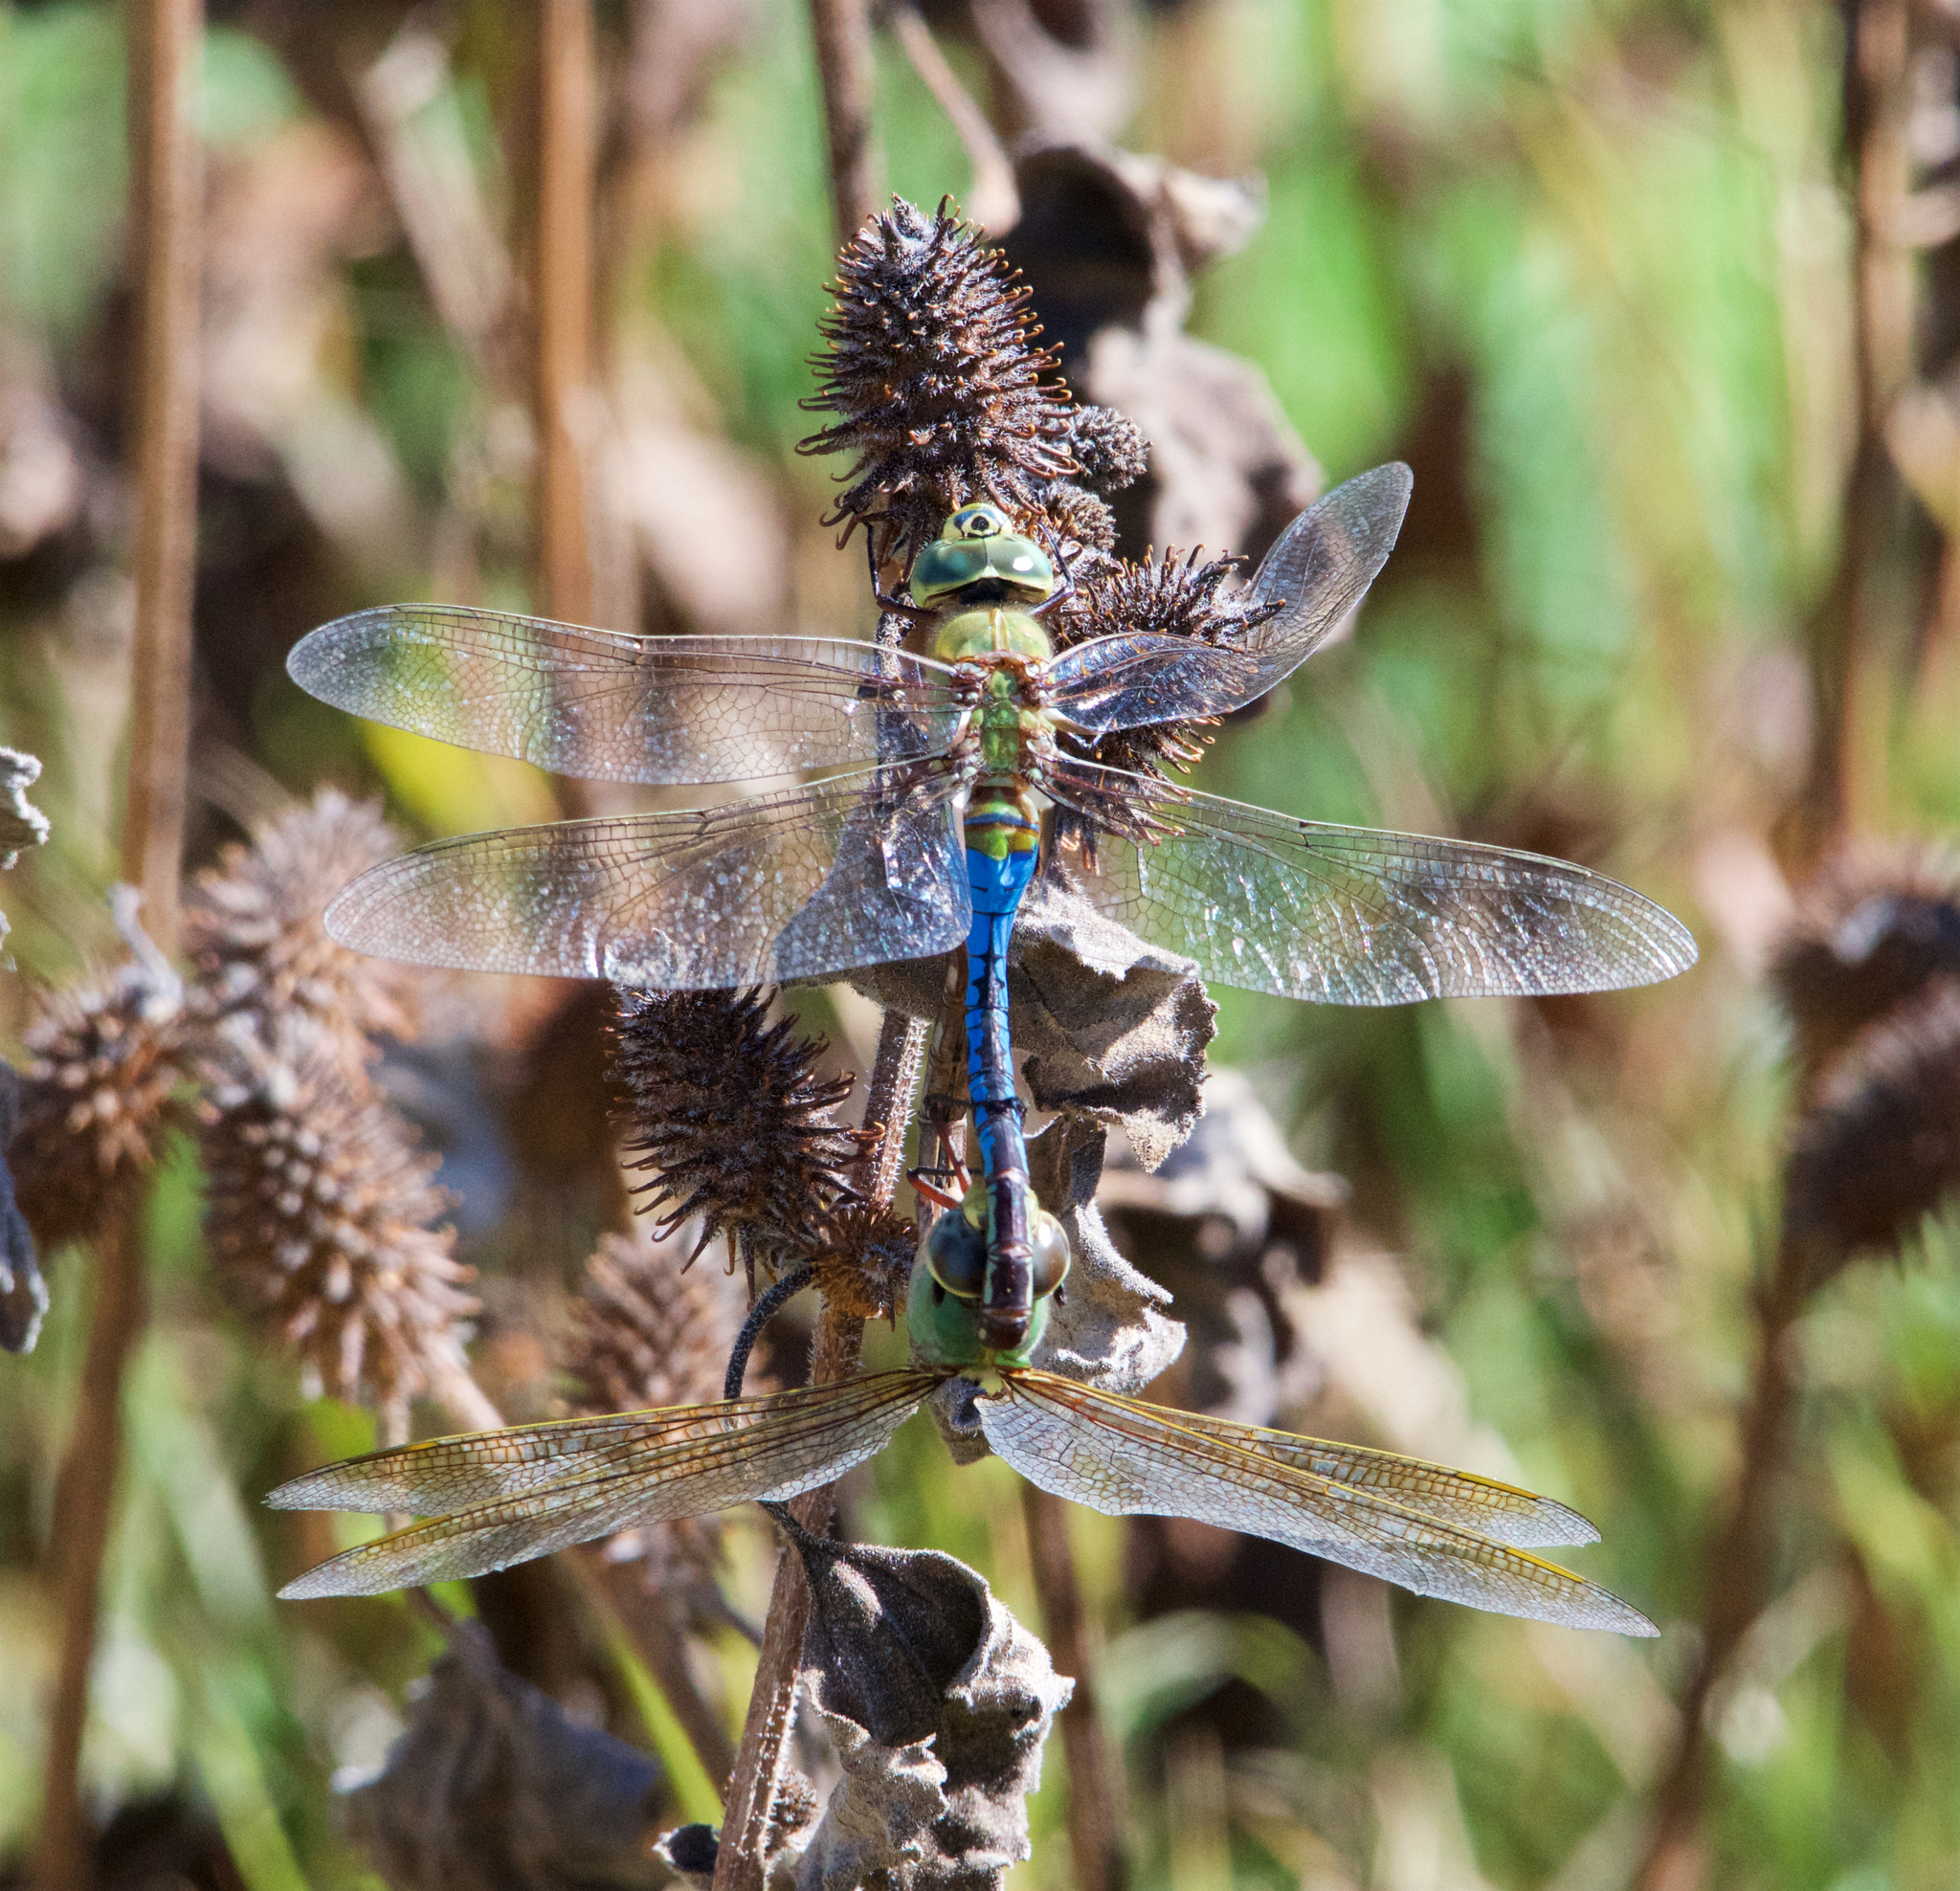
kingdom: Animalia
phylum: Arthropoda
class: Insecta
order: Odonata
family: Aeshnidae
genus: Anax
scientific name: Anax junius
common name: Common green darner
